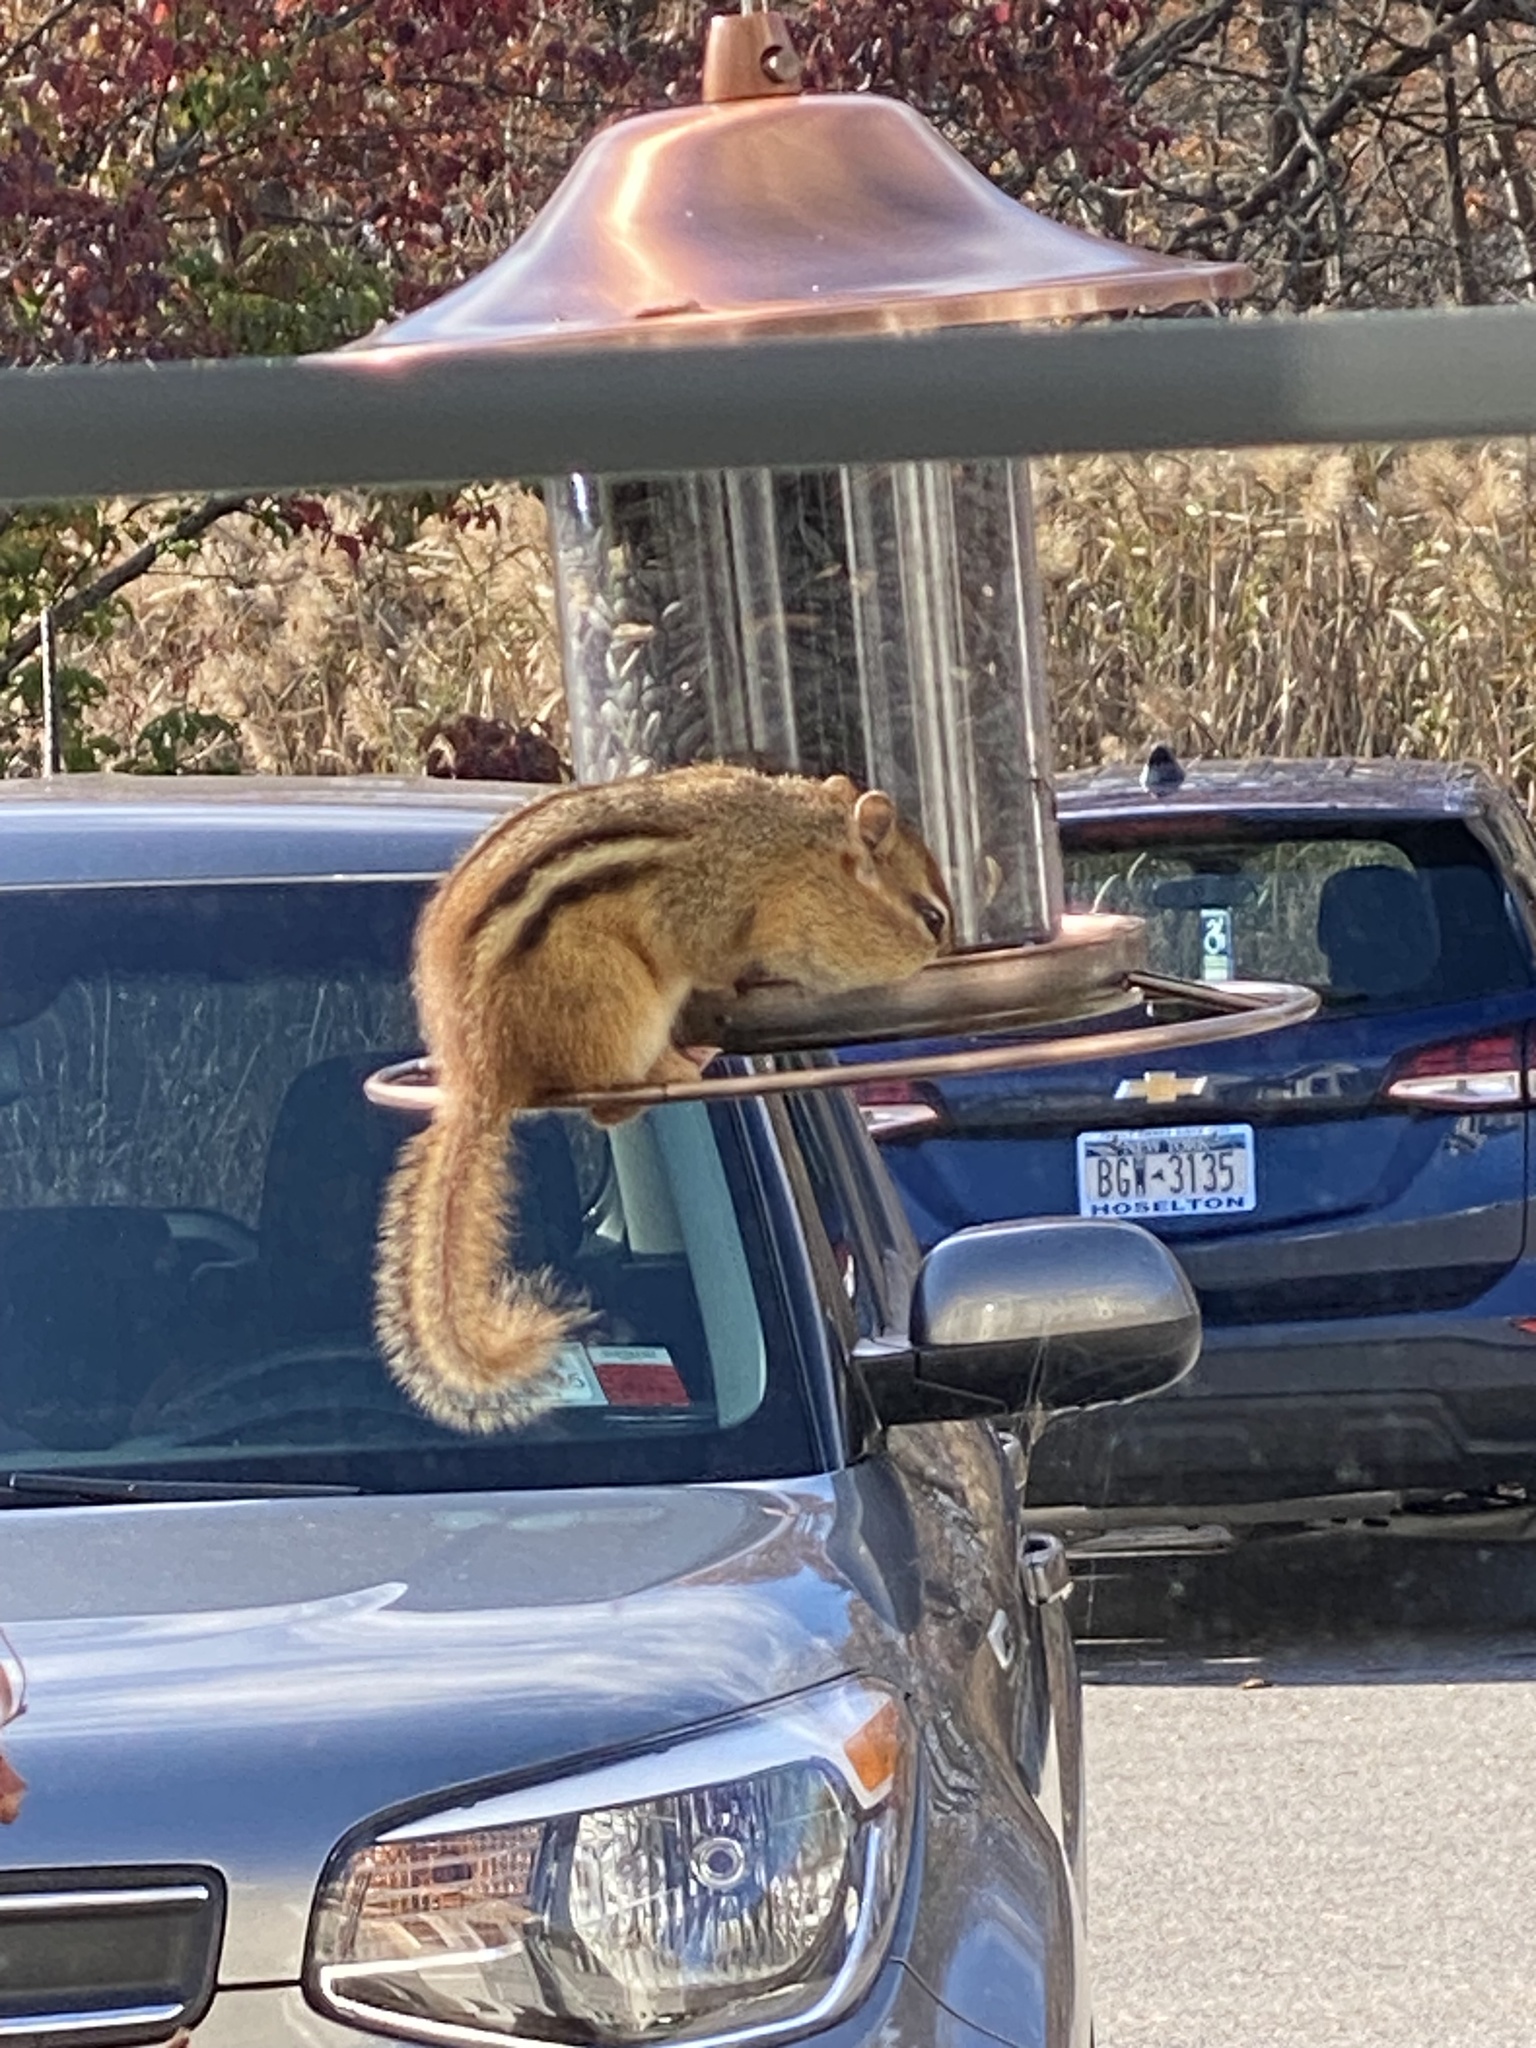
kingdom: Animalia
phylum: Chordata
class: Mammalia
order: Rodentia
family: Sciuridae
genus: Tamias
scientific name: Tamias striatus
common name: Eastern chipmunk
